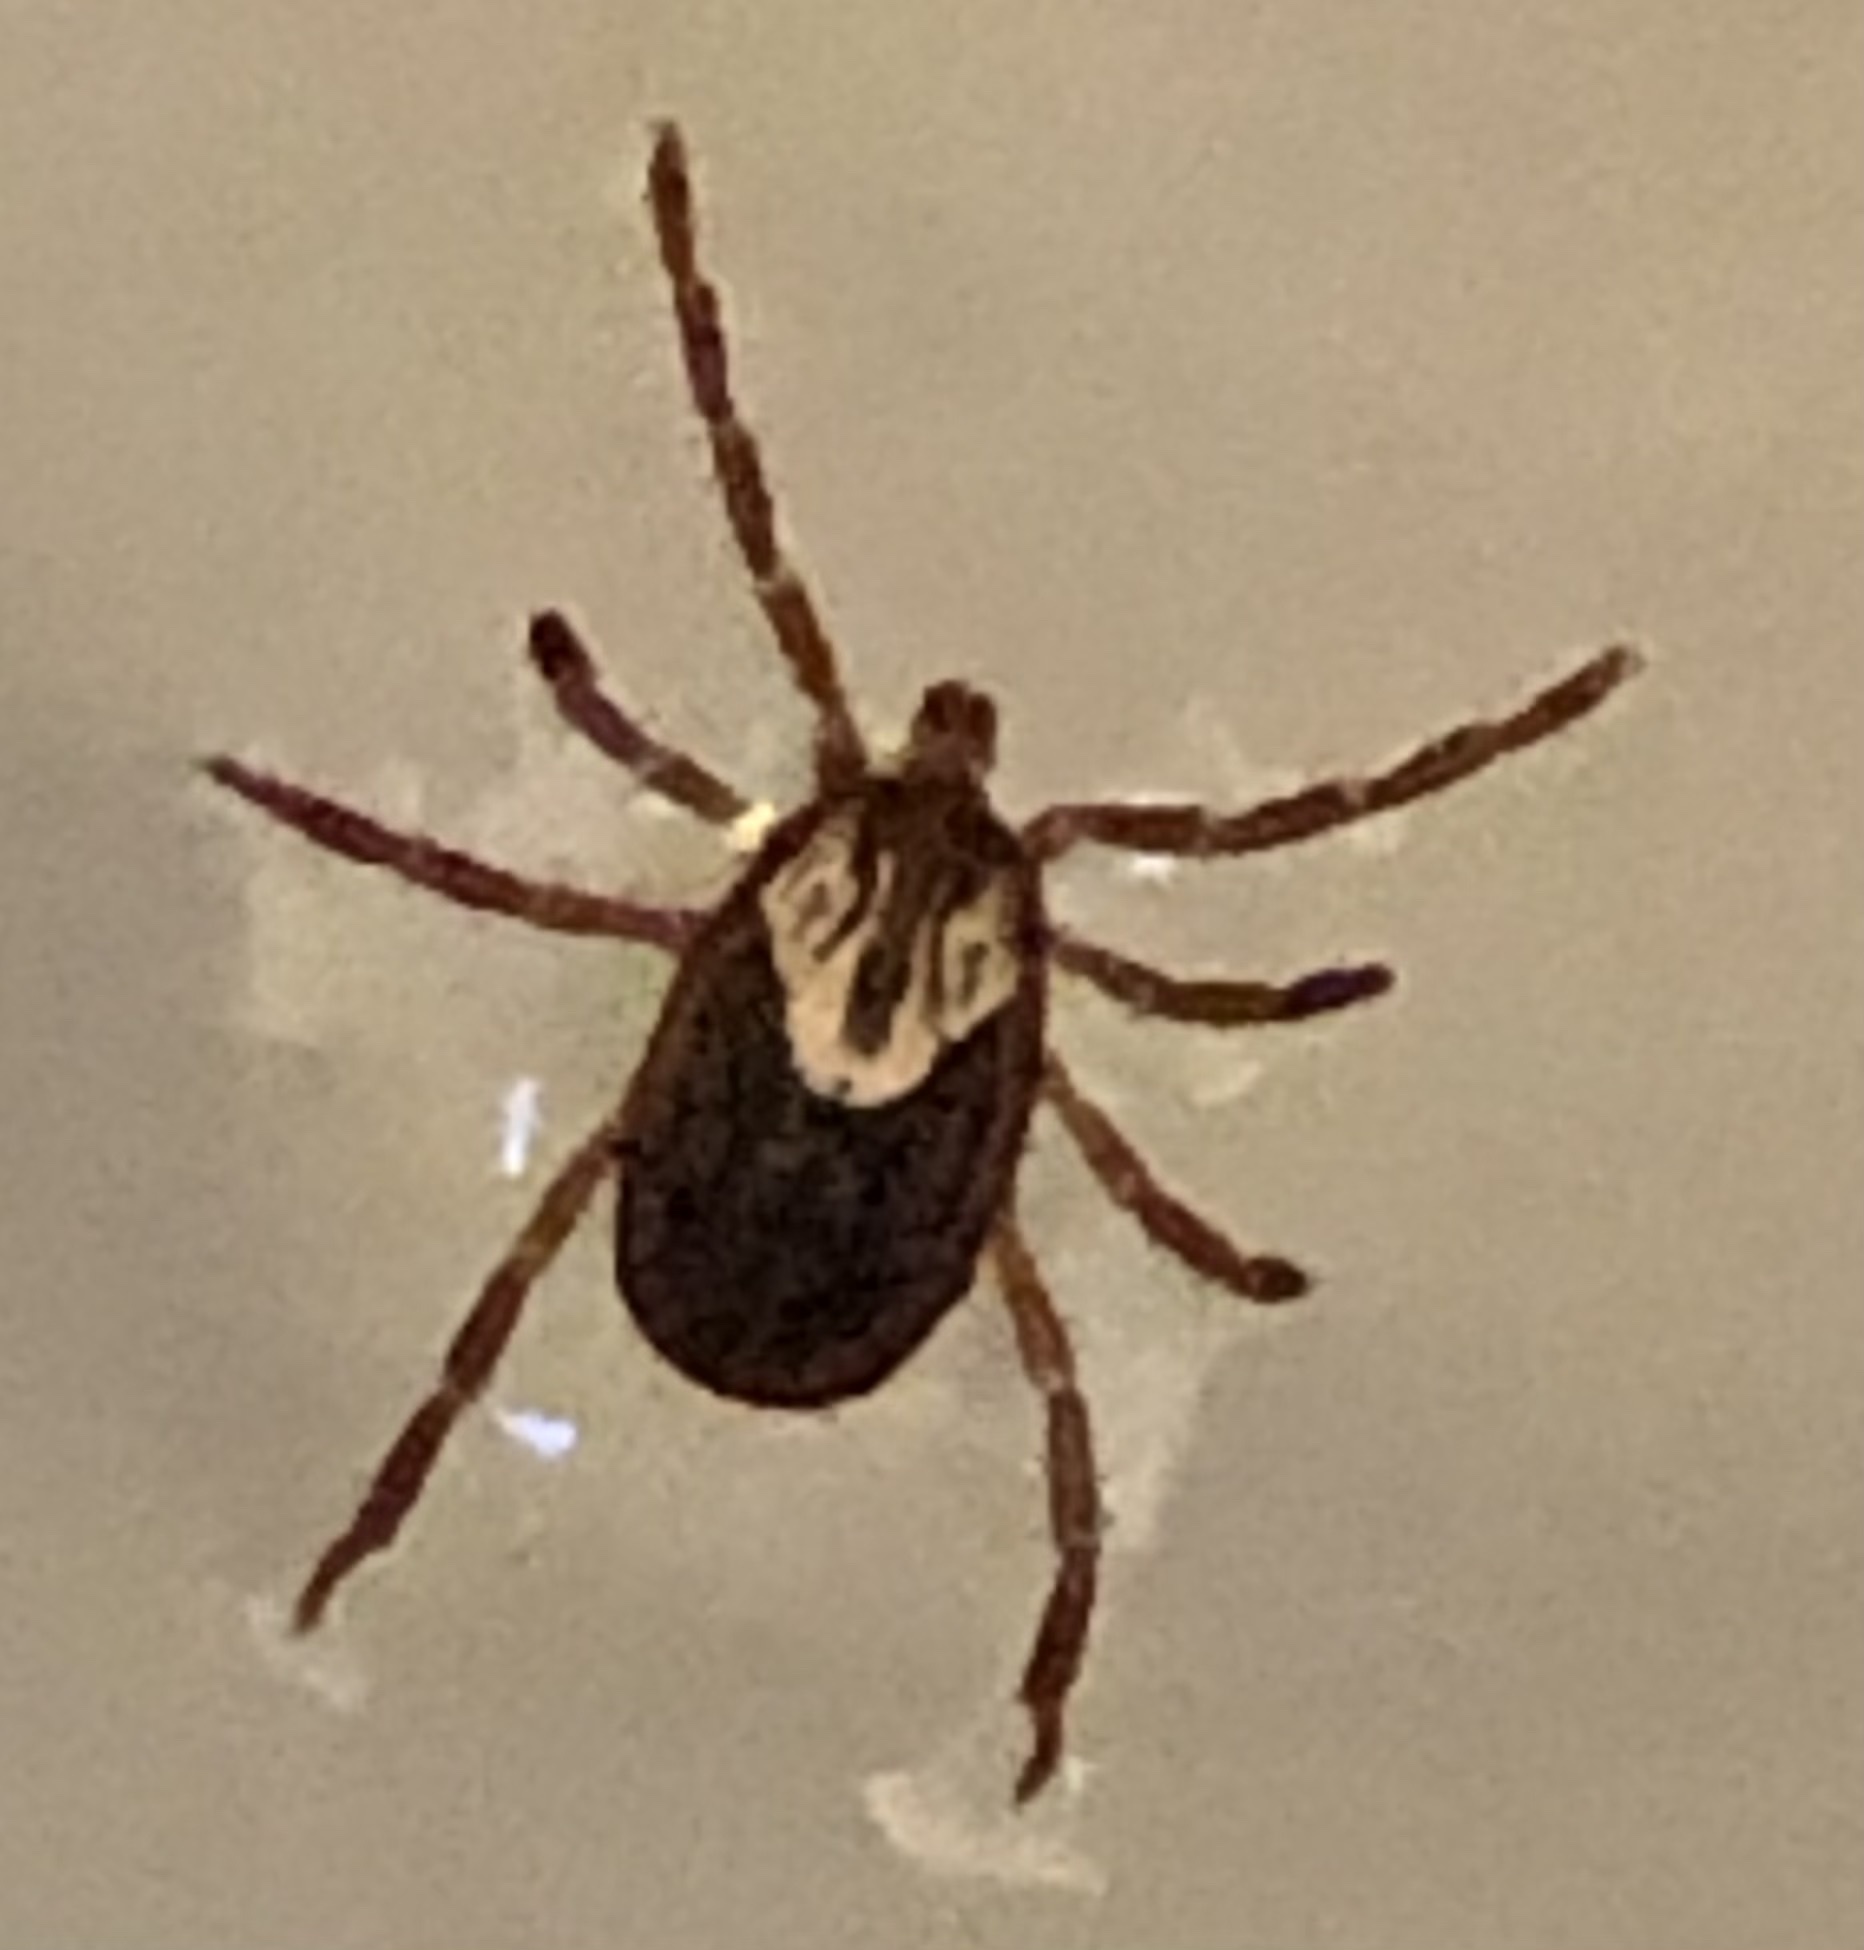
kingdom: Animalia
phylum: Arthropoda
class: Arachnida
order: Ixodida
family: Ixodidae
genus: Amblyomma
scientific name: Amblyomma maculatum
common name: Gulf coast tick
